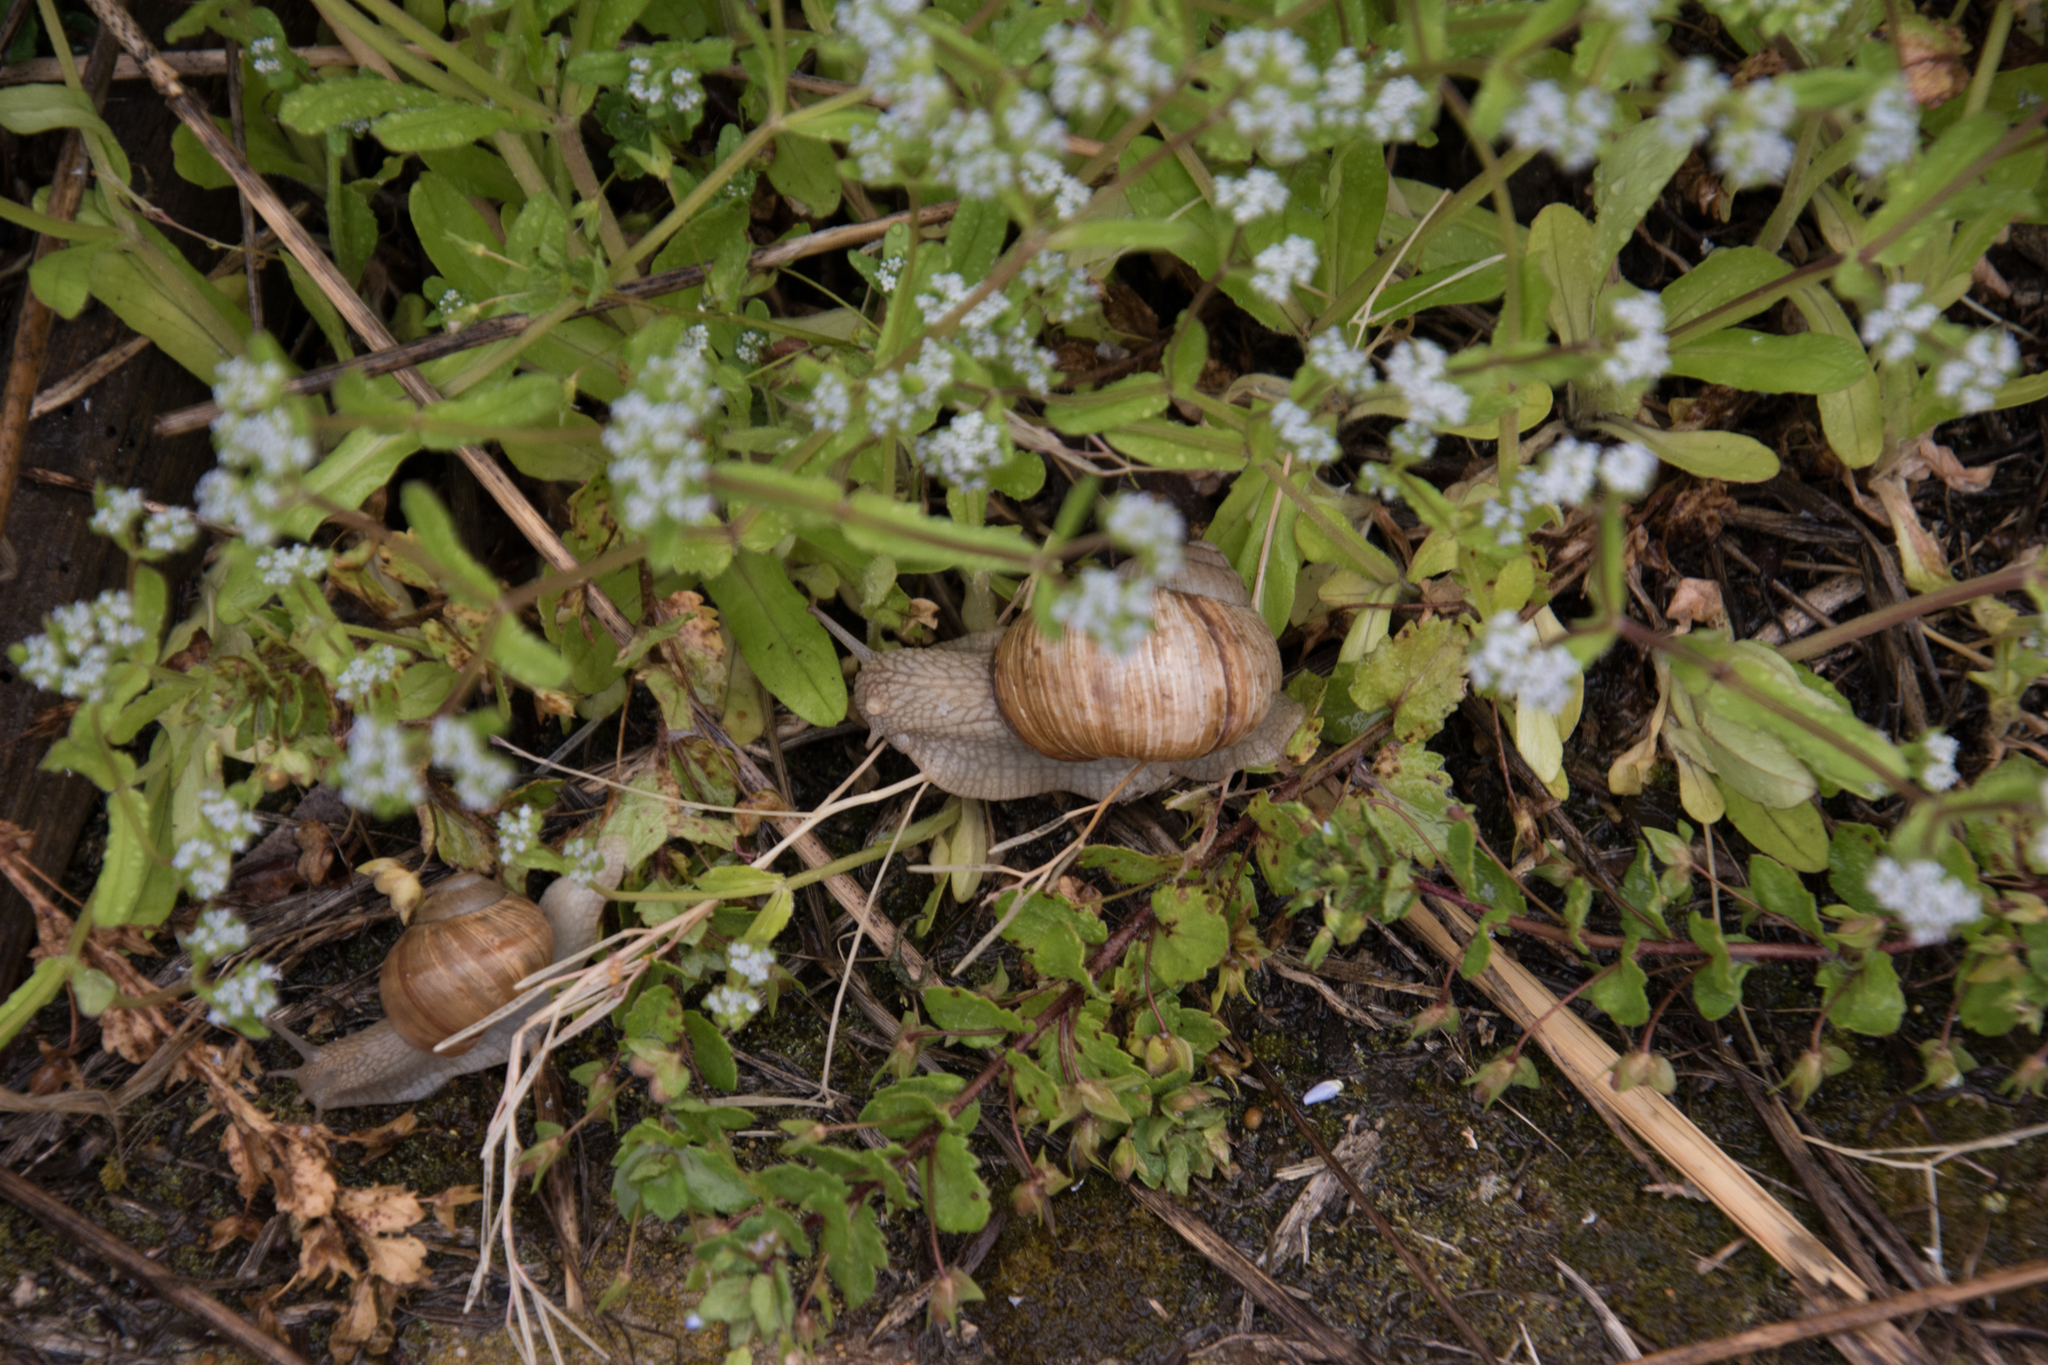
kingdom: Animalia
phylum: Mollusca
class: Gastropoda
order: Stylommatophora
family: Helicidae
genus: Helix
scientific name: Helix pomatia
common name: Roman snail
